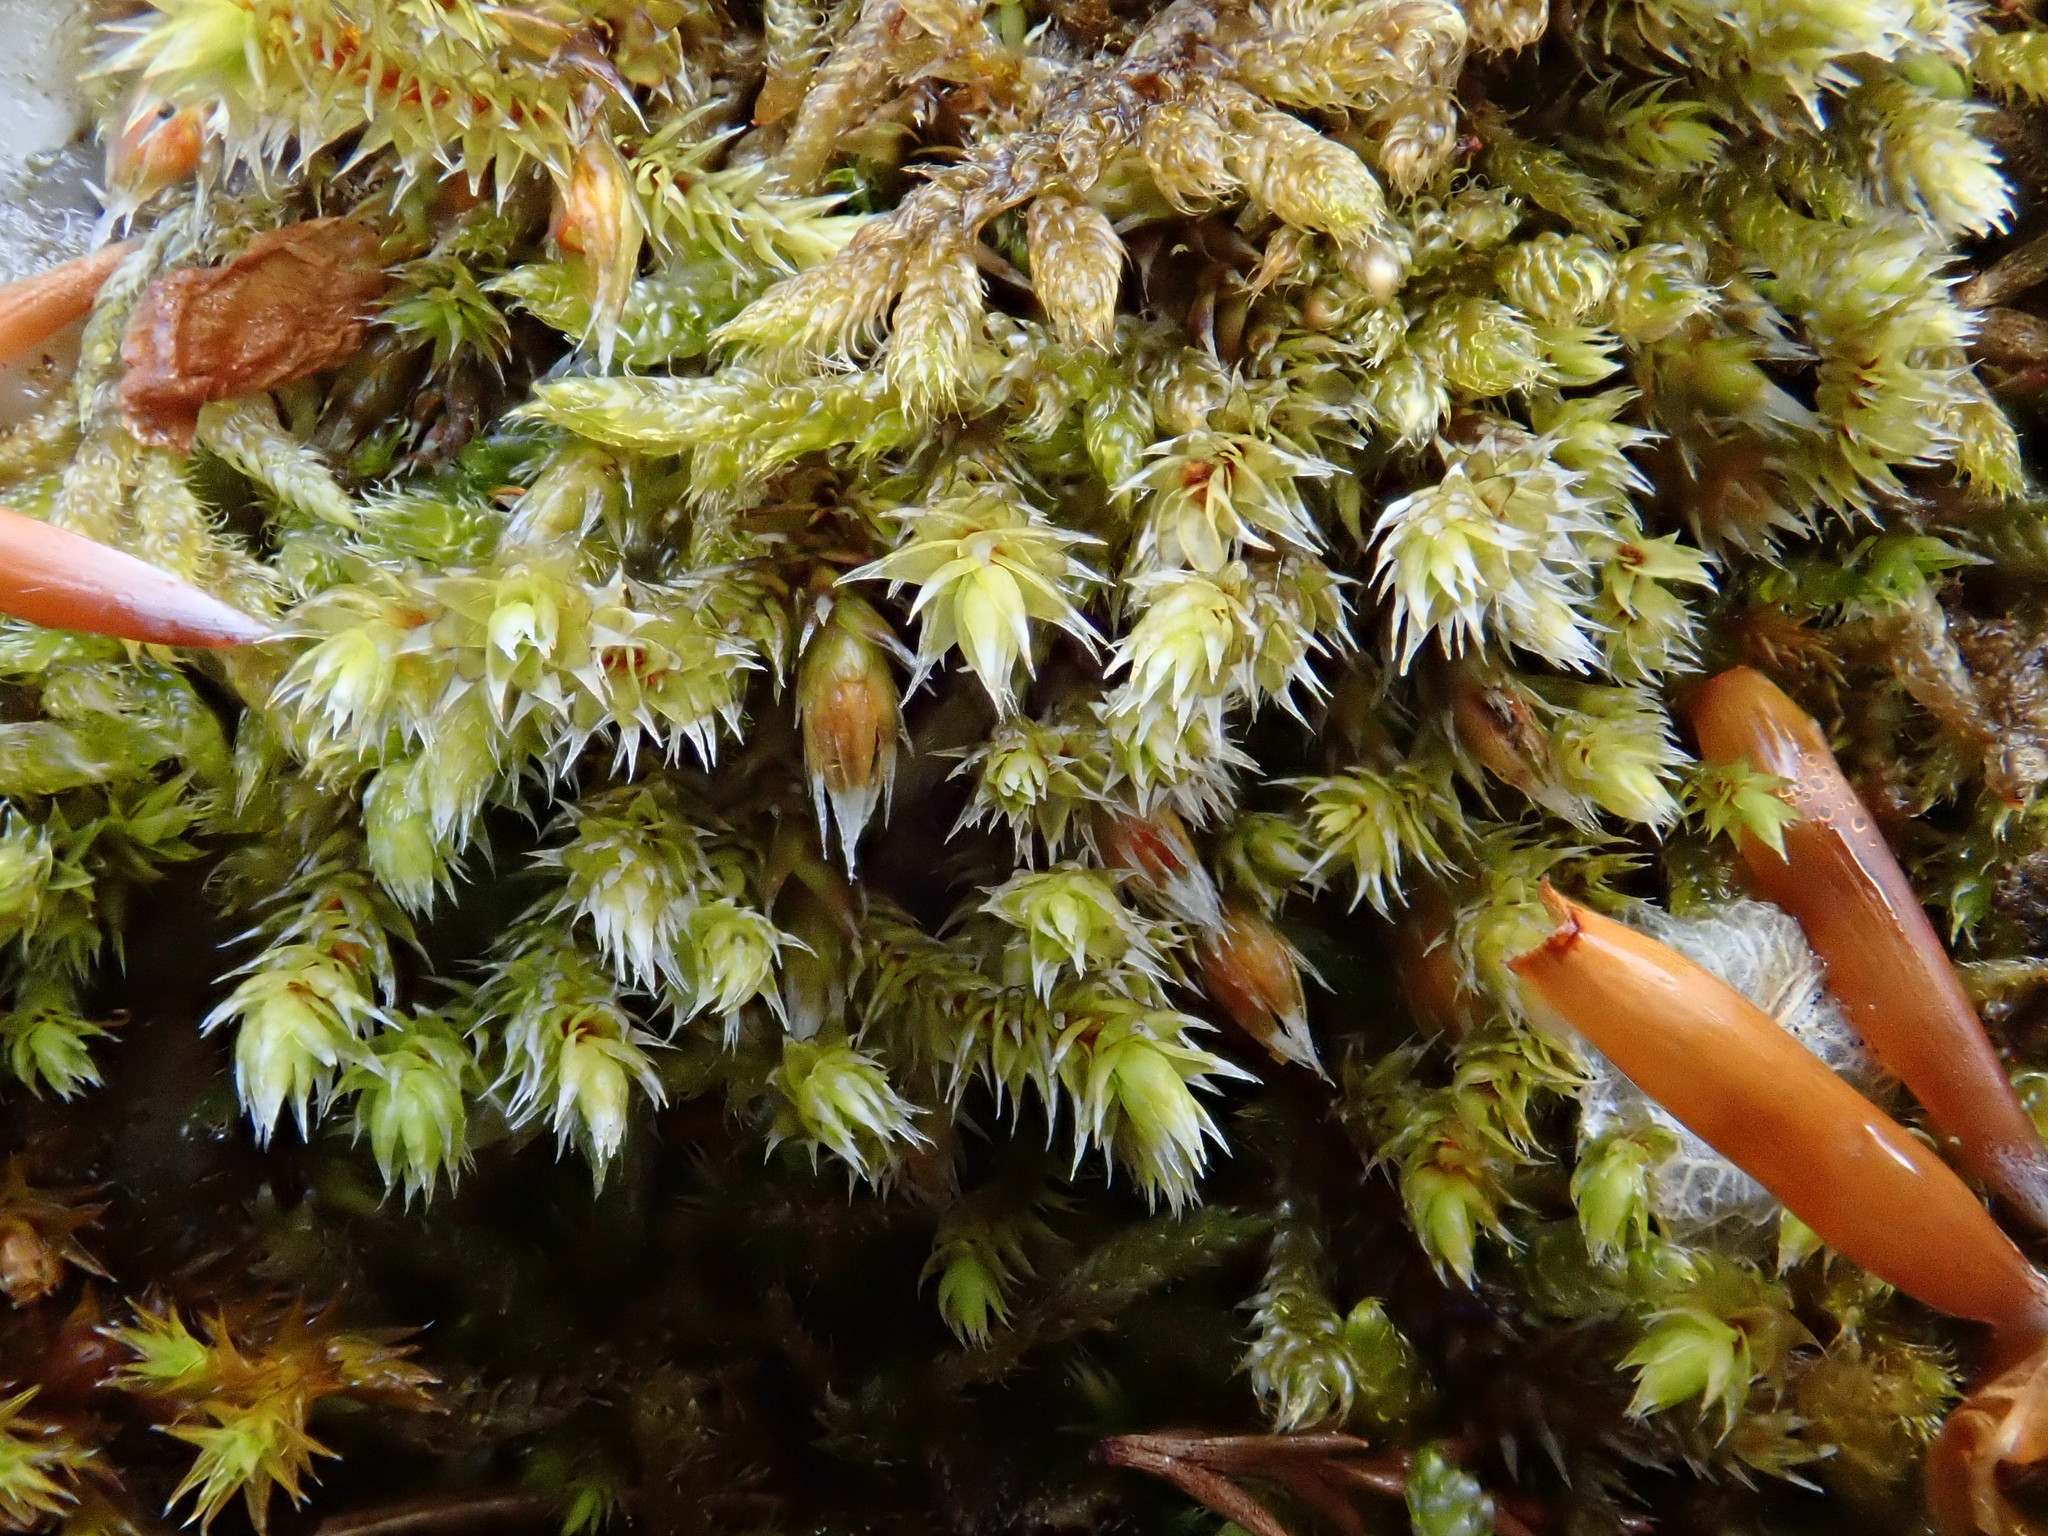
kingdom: Plantae
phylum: Bryophyta
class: Bryopsida
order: Hedwigiales
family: Hedwigiaceae
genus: Hedwigia
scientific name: Hedwigia ciliata
